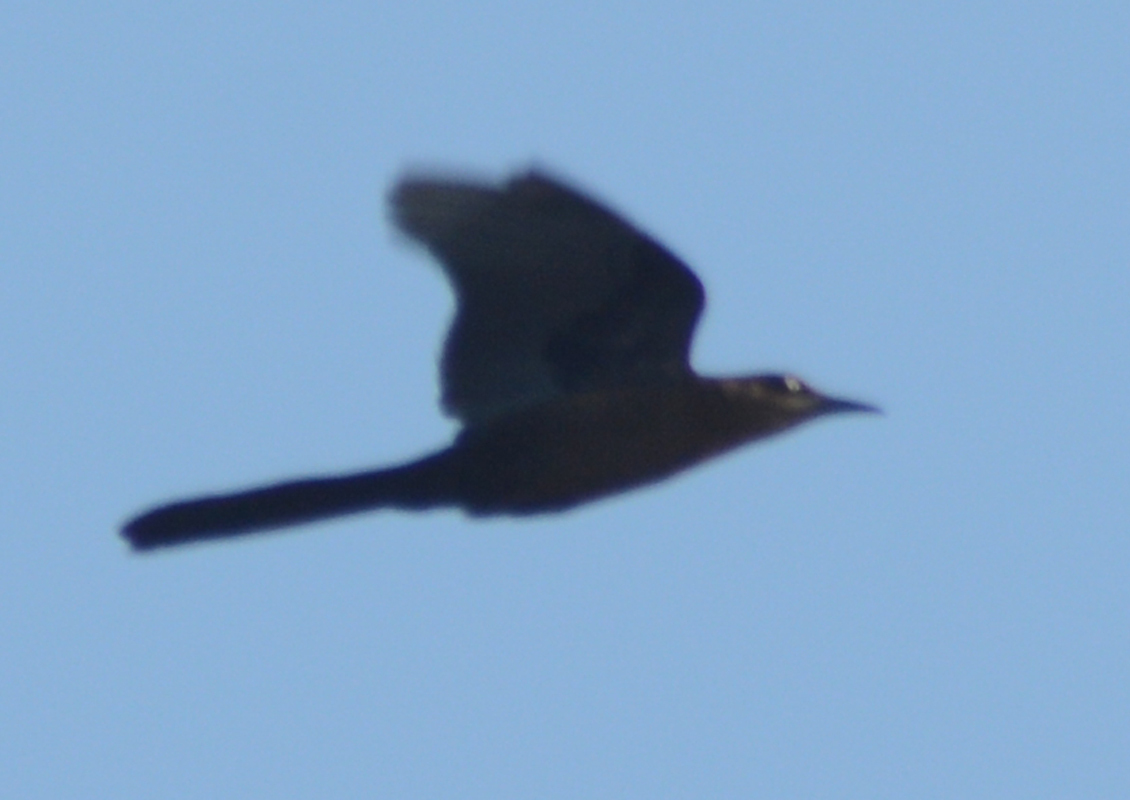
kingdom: Animalia
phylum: Chordata
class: Aves
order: Passeriformes
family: Icteridae
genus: Quiscalus
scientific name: Quiscalus mexicanus
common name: Great-tailed grackle
